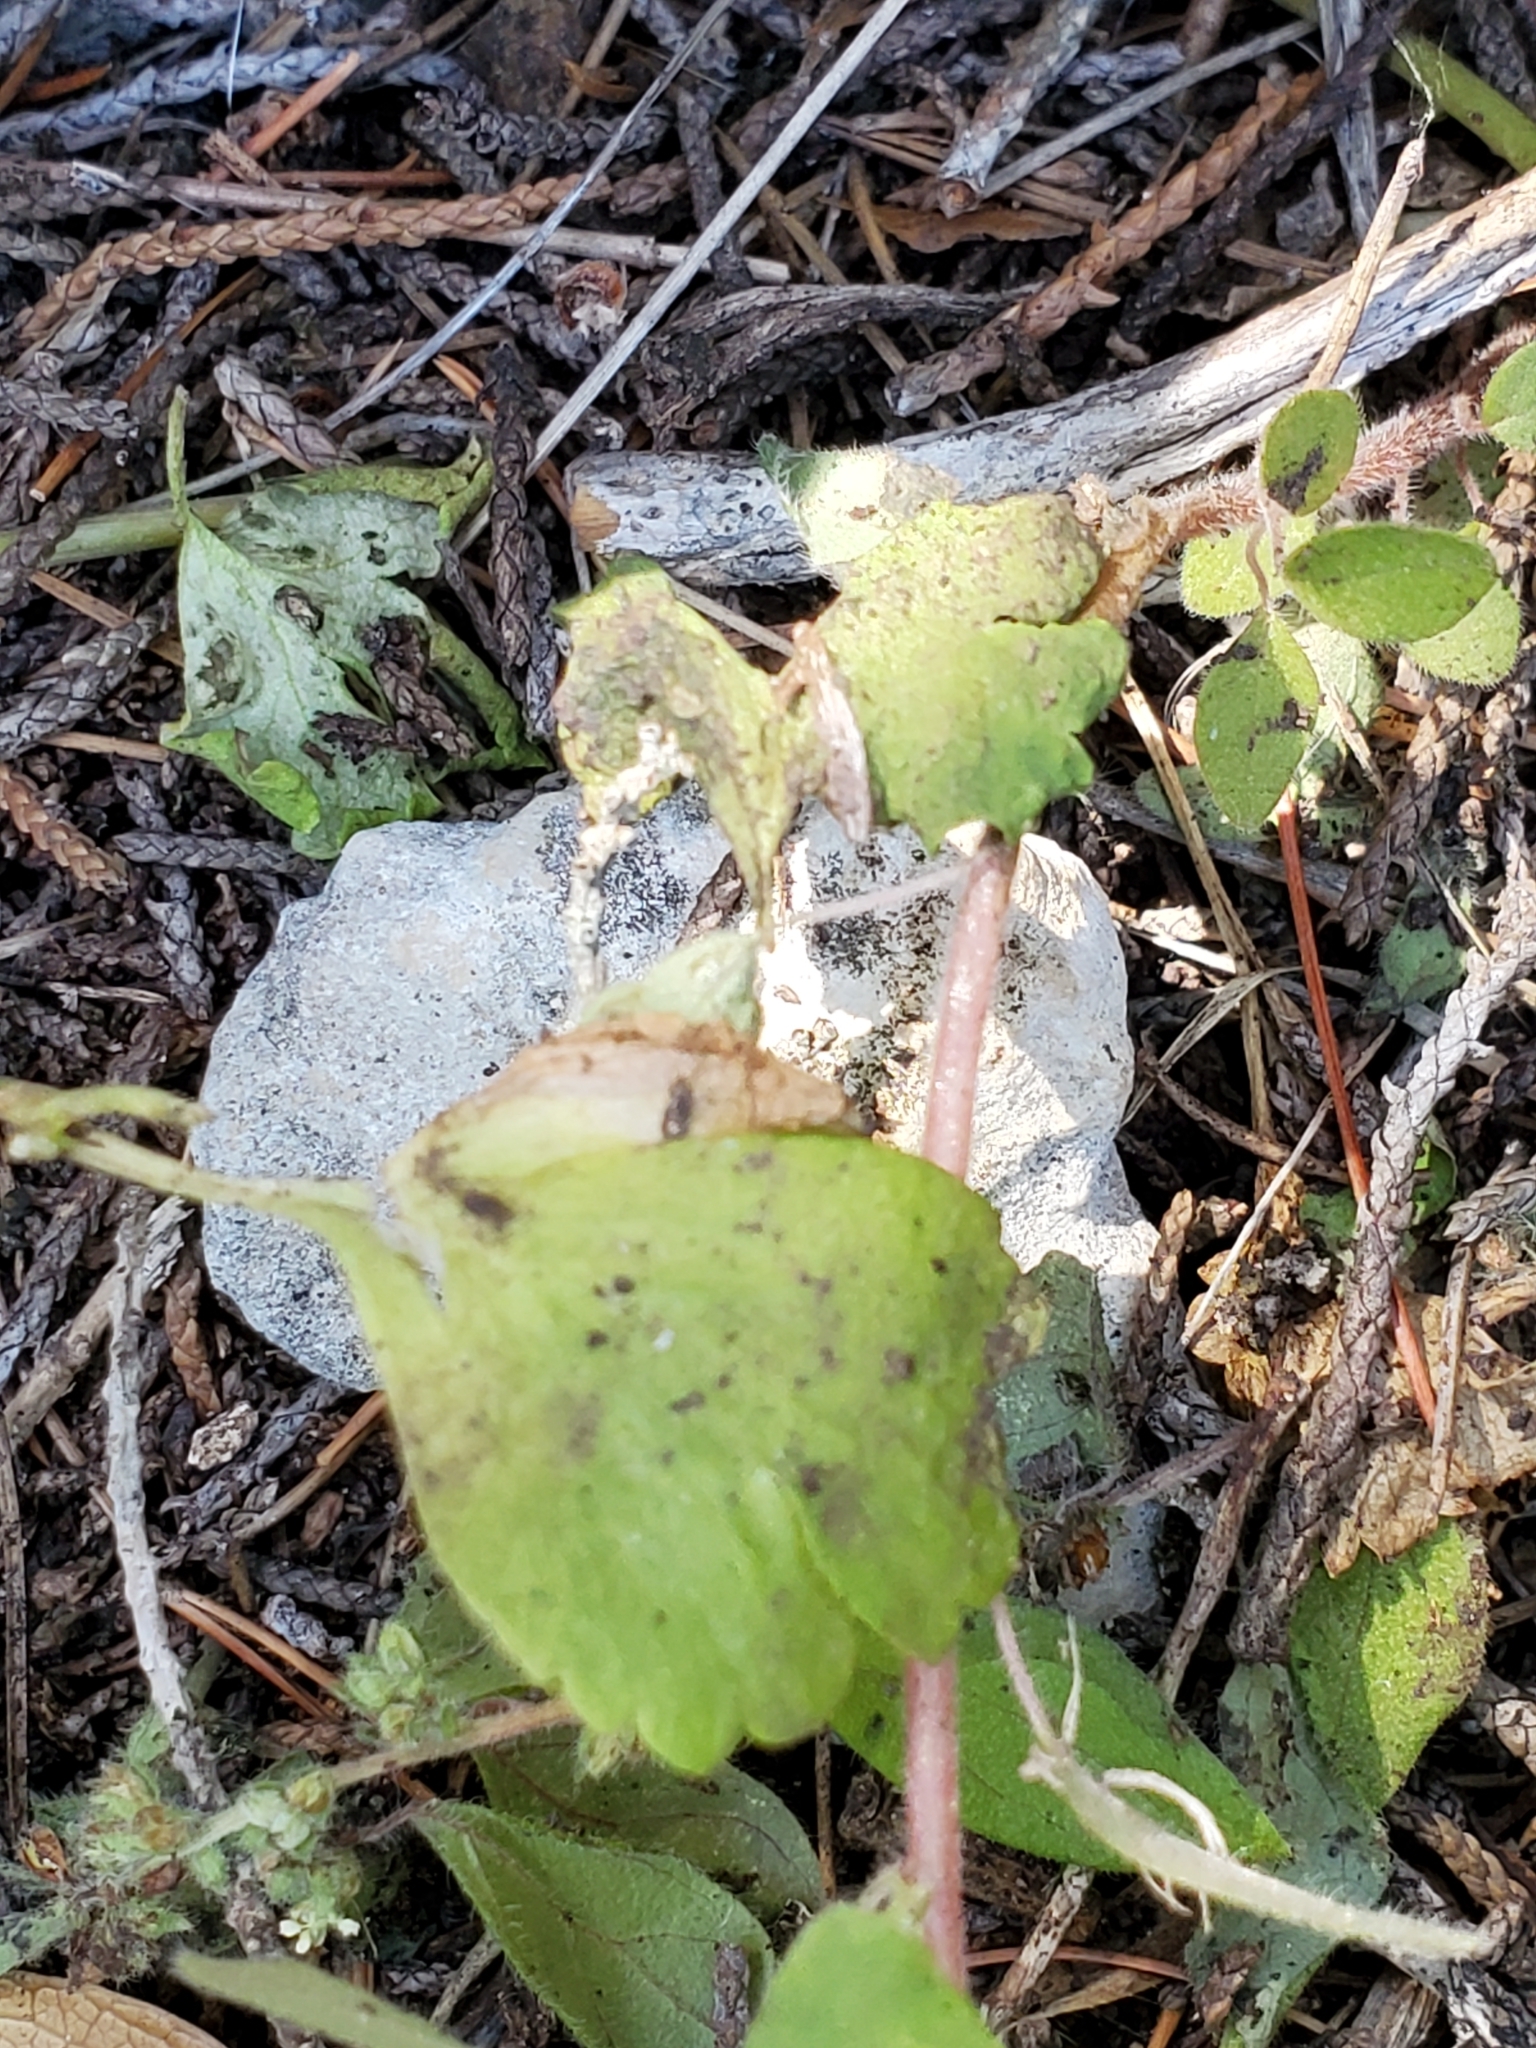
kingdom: Plantae
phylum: Tracheophyta
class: Magnoliopsida
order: Ranunculales
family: Ranunculaceae
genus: Anemone
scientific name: Anemone edwardsiana
